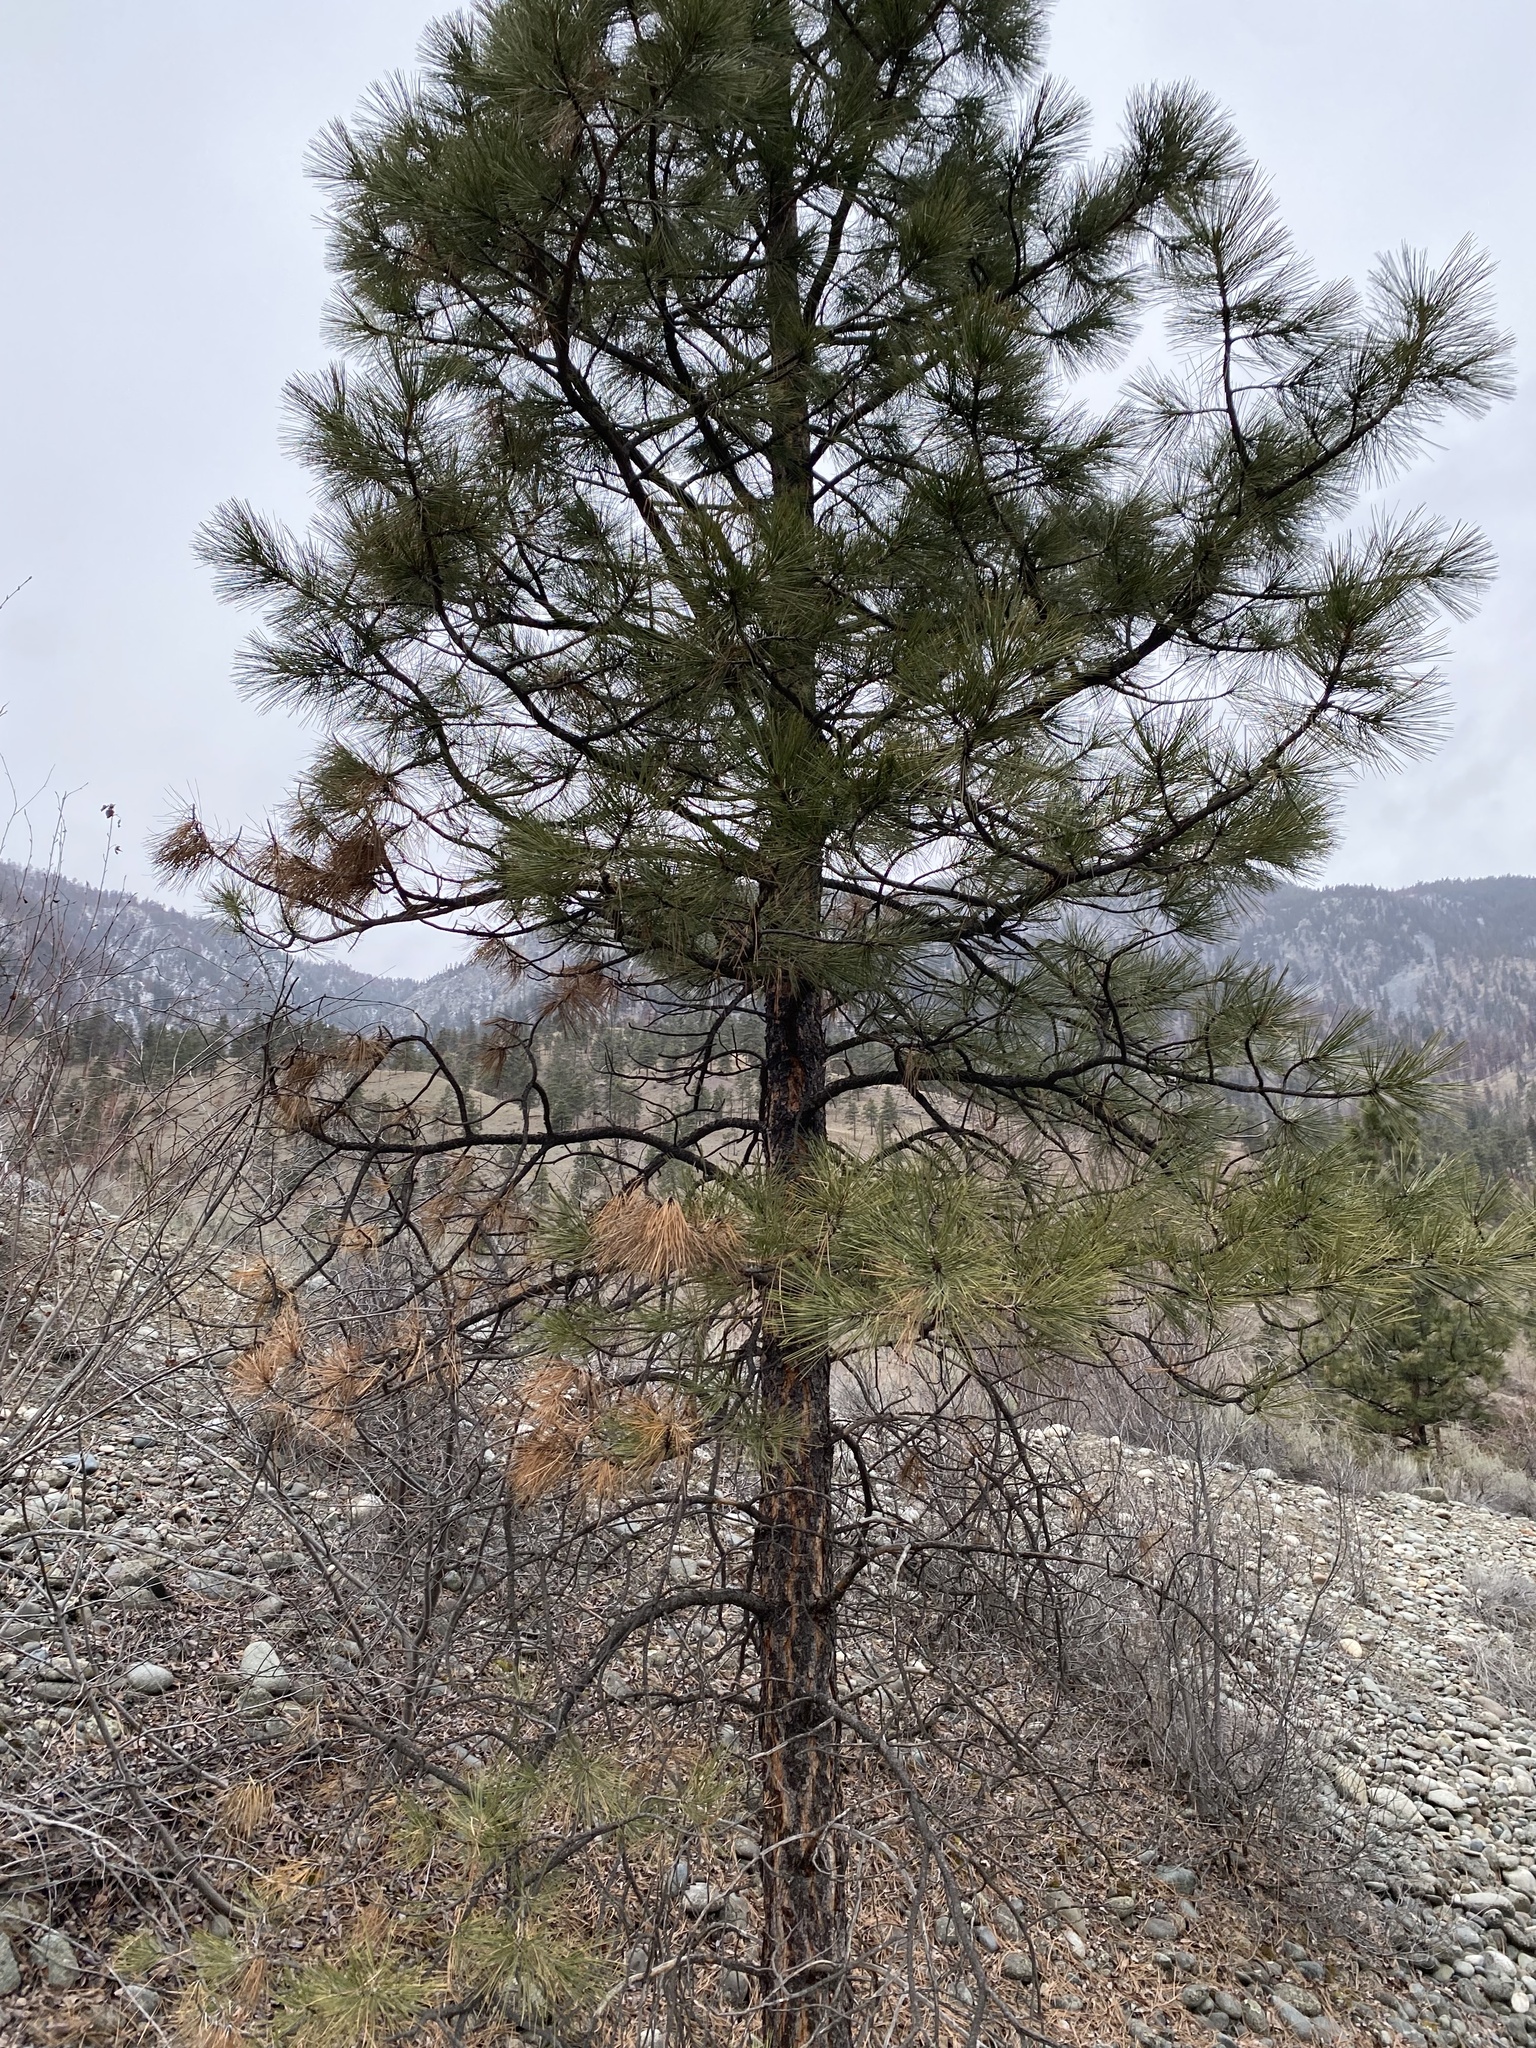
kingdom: Plantae
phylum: Tracheophyta
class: Pinopsida
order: Pinales
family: Pinaceae
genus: Pinus
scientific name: Pinus ponderosa
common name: Western yellow-pine
